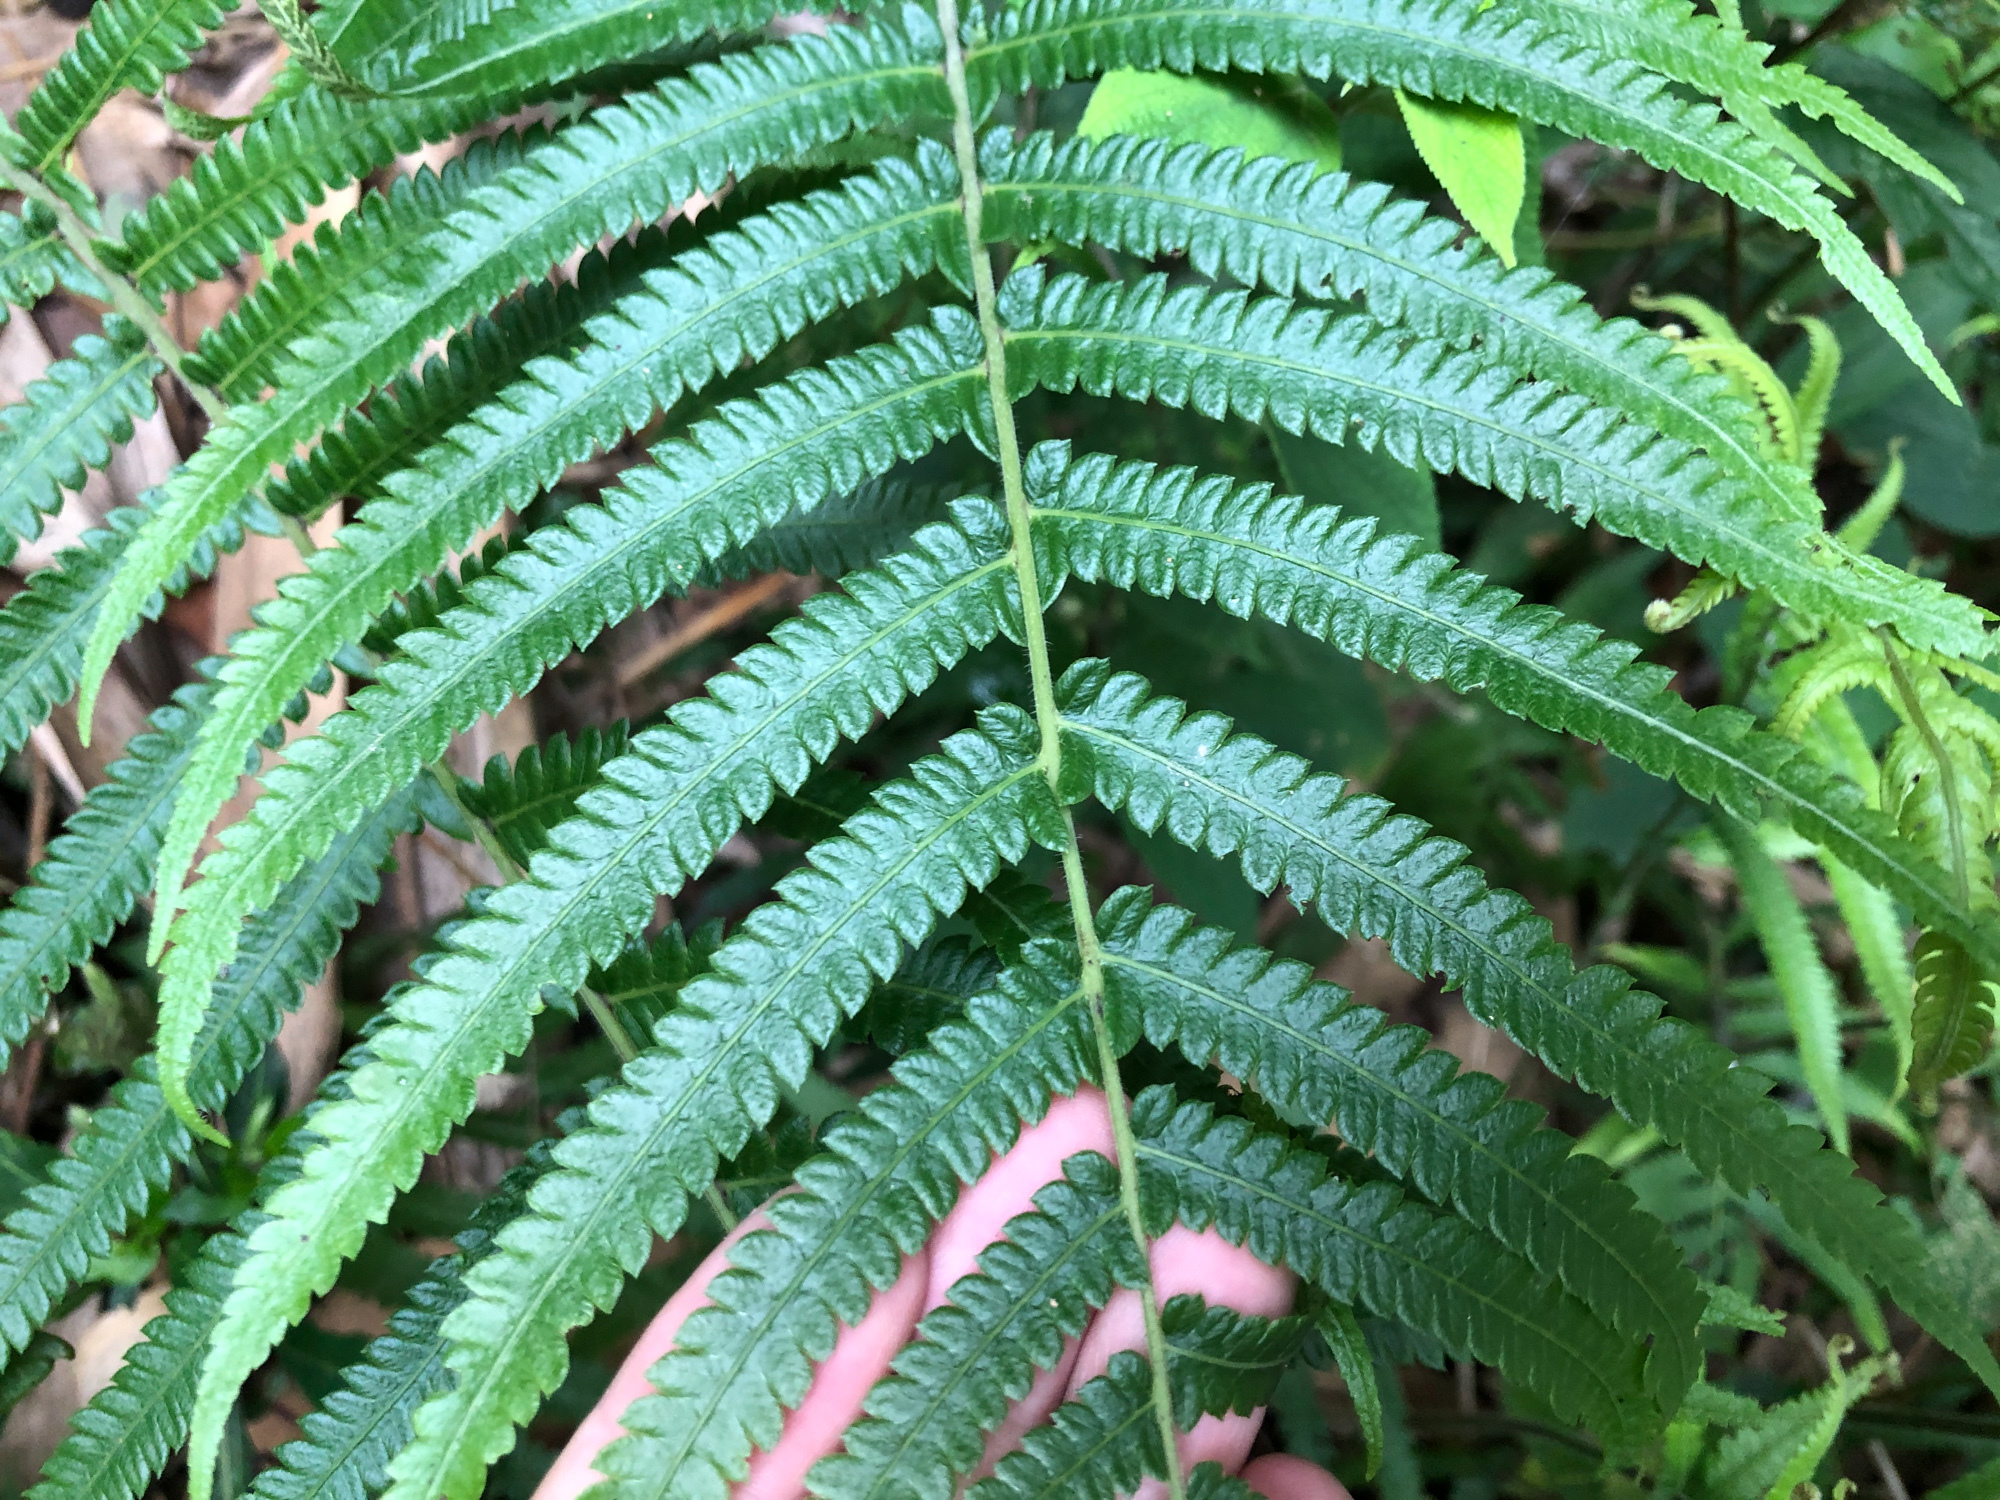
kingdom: Plantae
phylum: Tracheophyta
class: Polypodiopsida
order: Polypodiales
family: Thelypteridaceae
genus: Christella
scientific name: Christella acuminata
